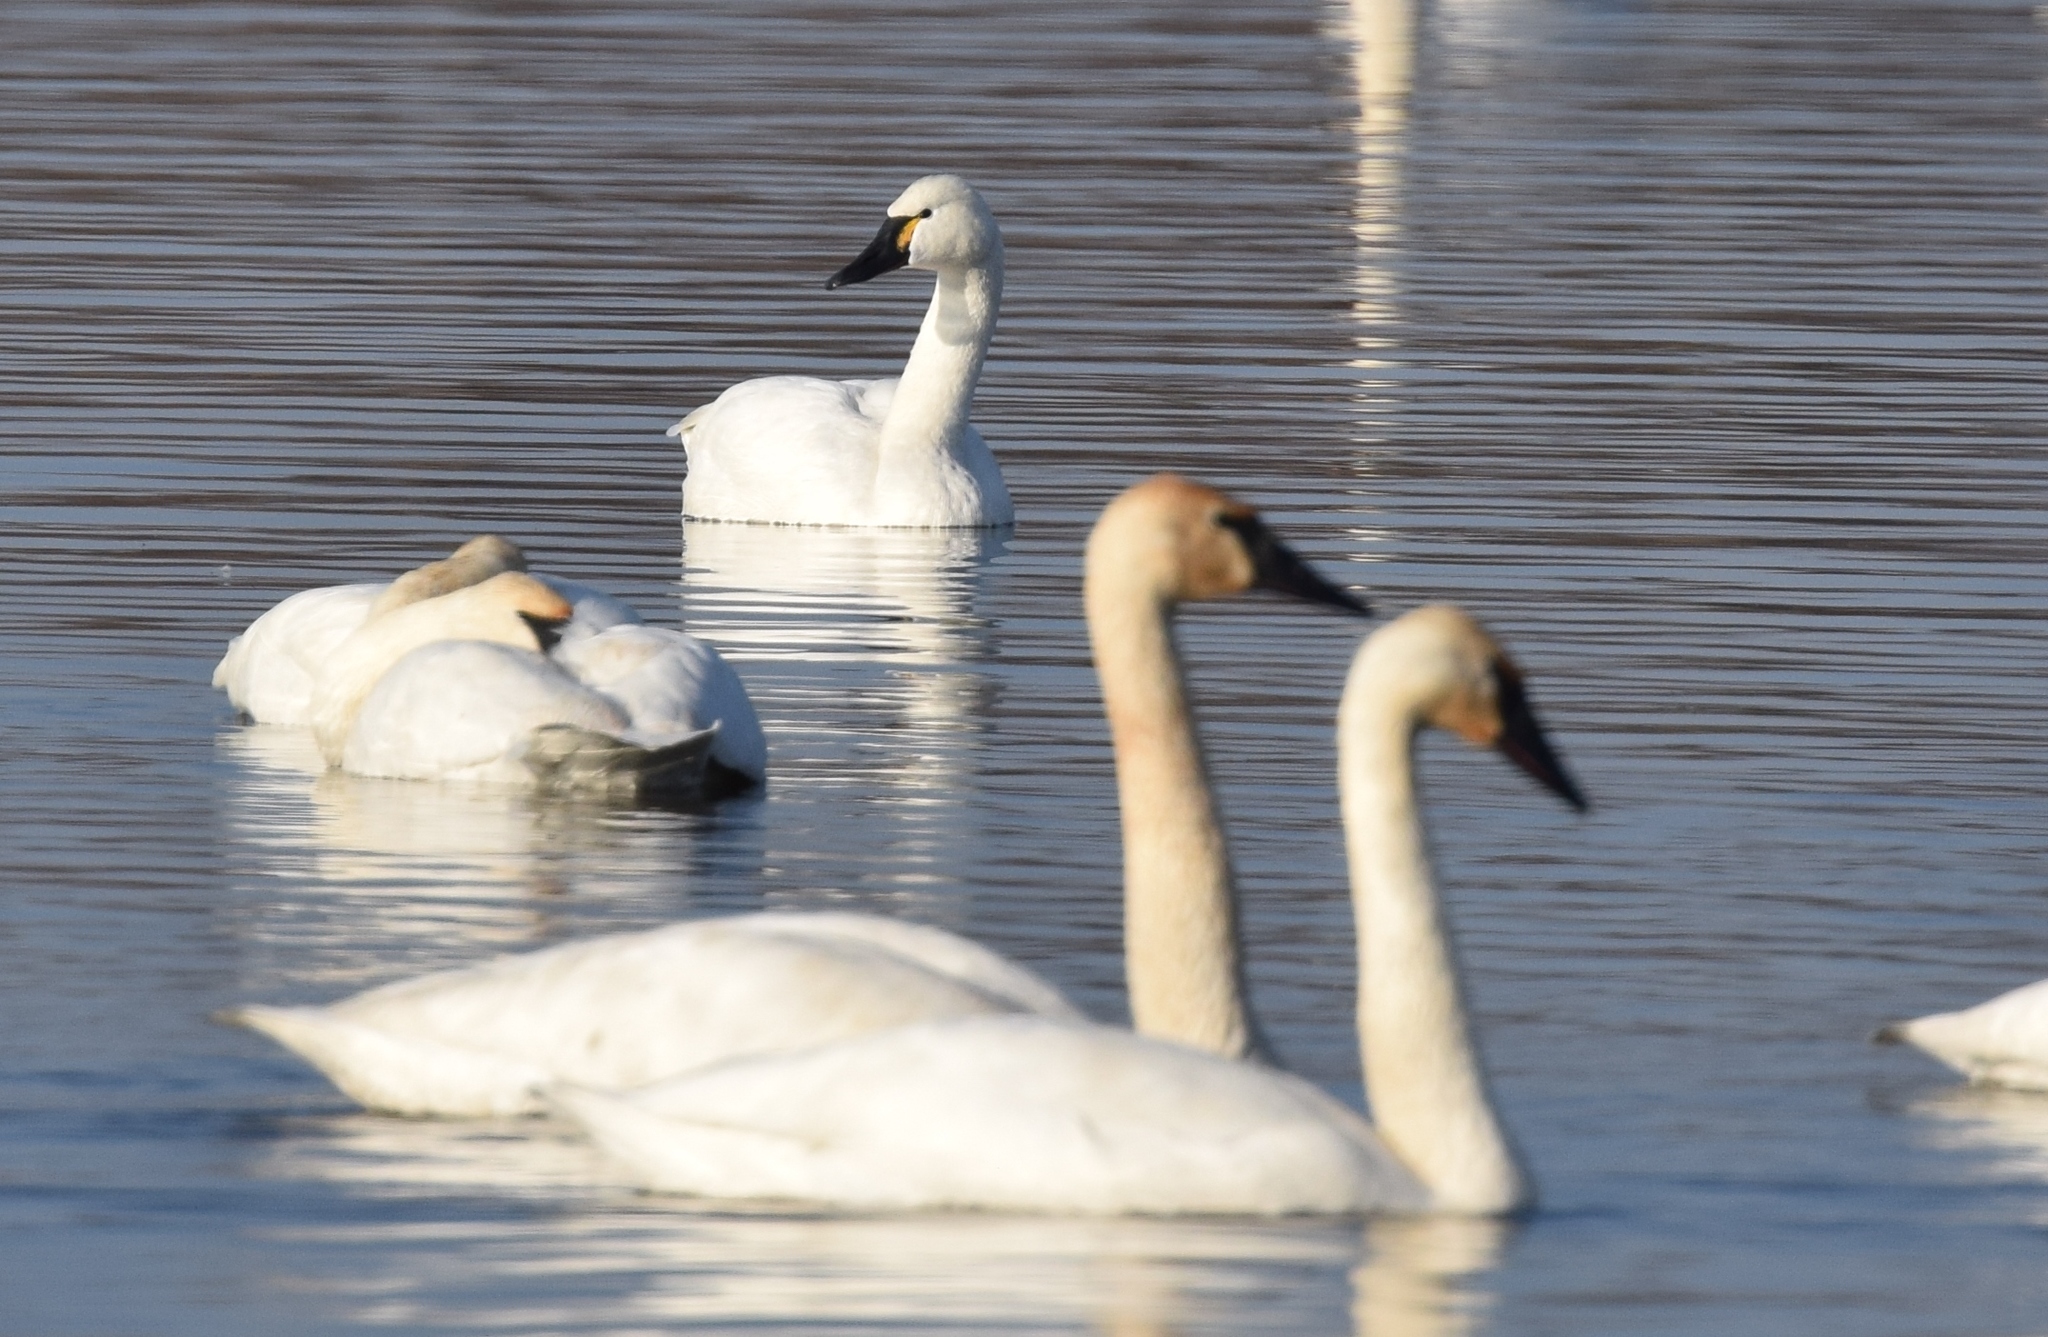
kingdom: Animalia
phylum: Chordata
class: Aves
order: Anseriformes
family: Anatidae
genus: Cygnus
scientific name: Cygnus columbianus
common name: Tundra swan
